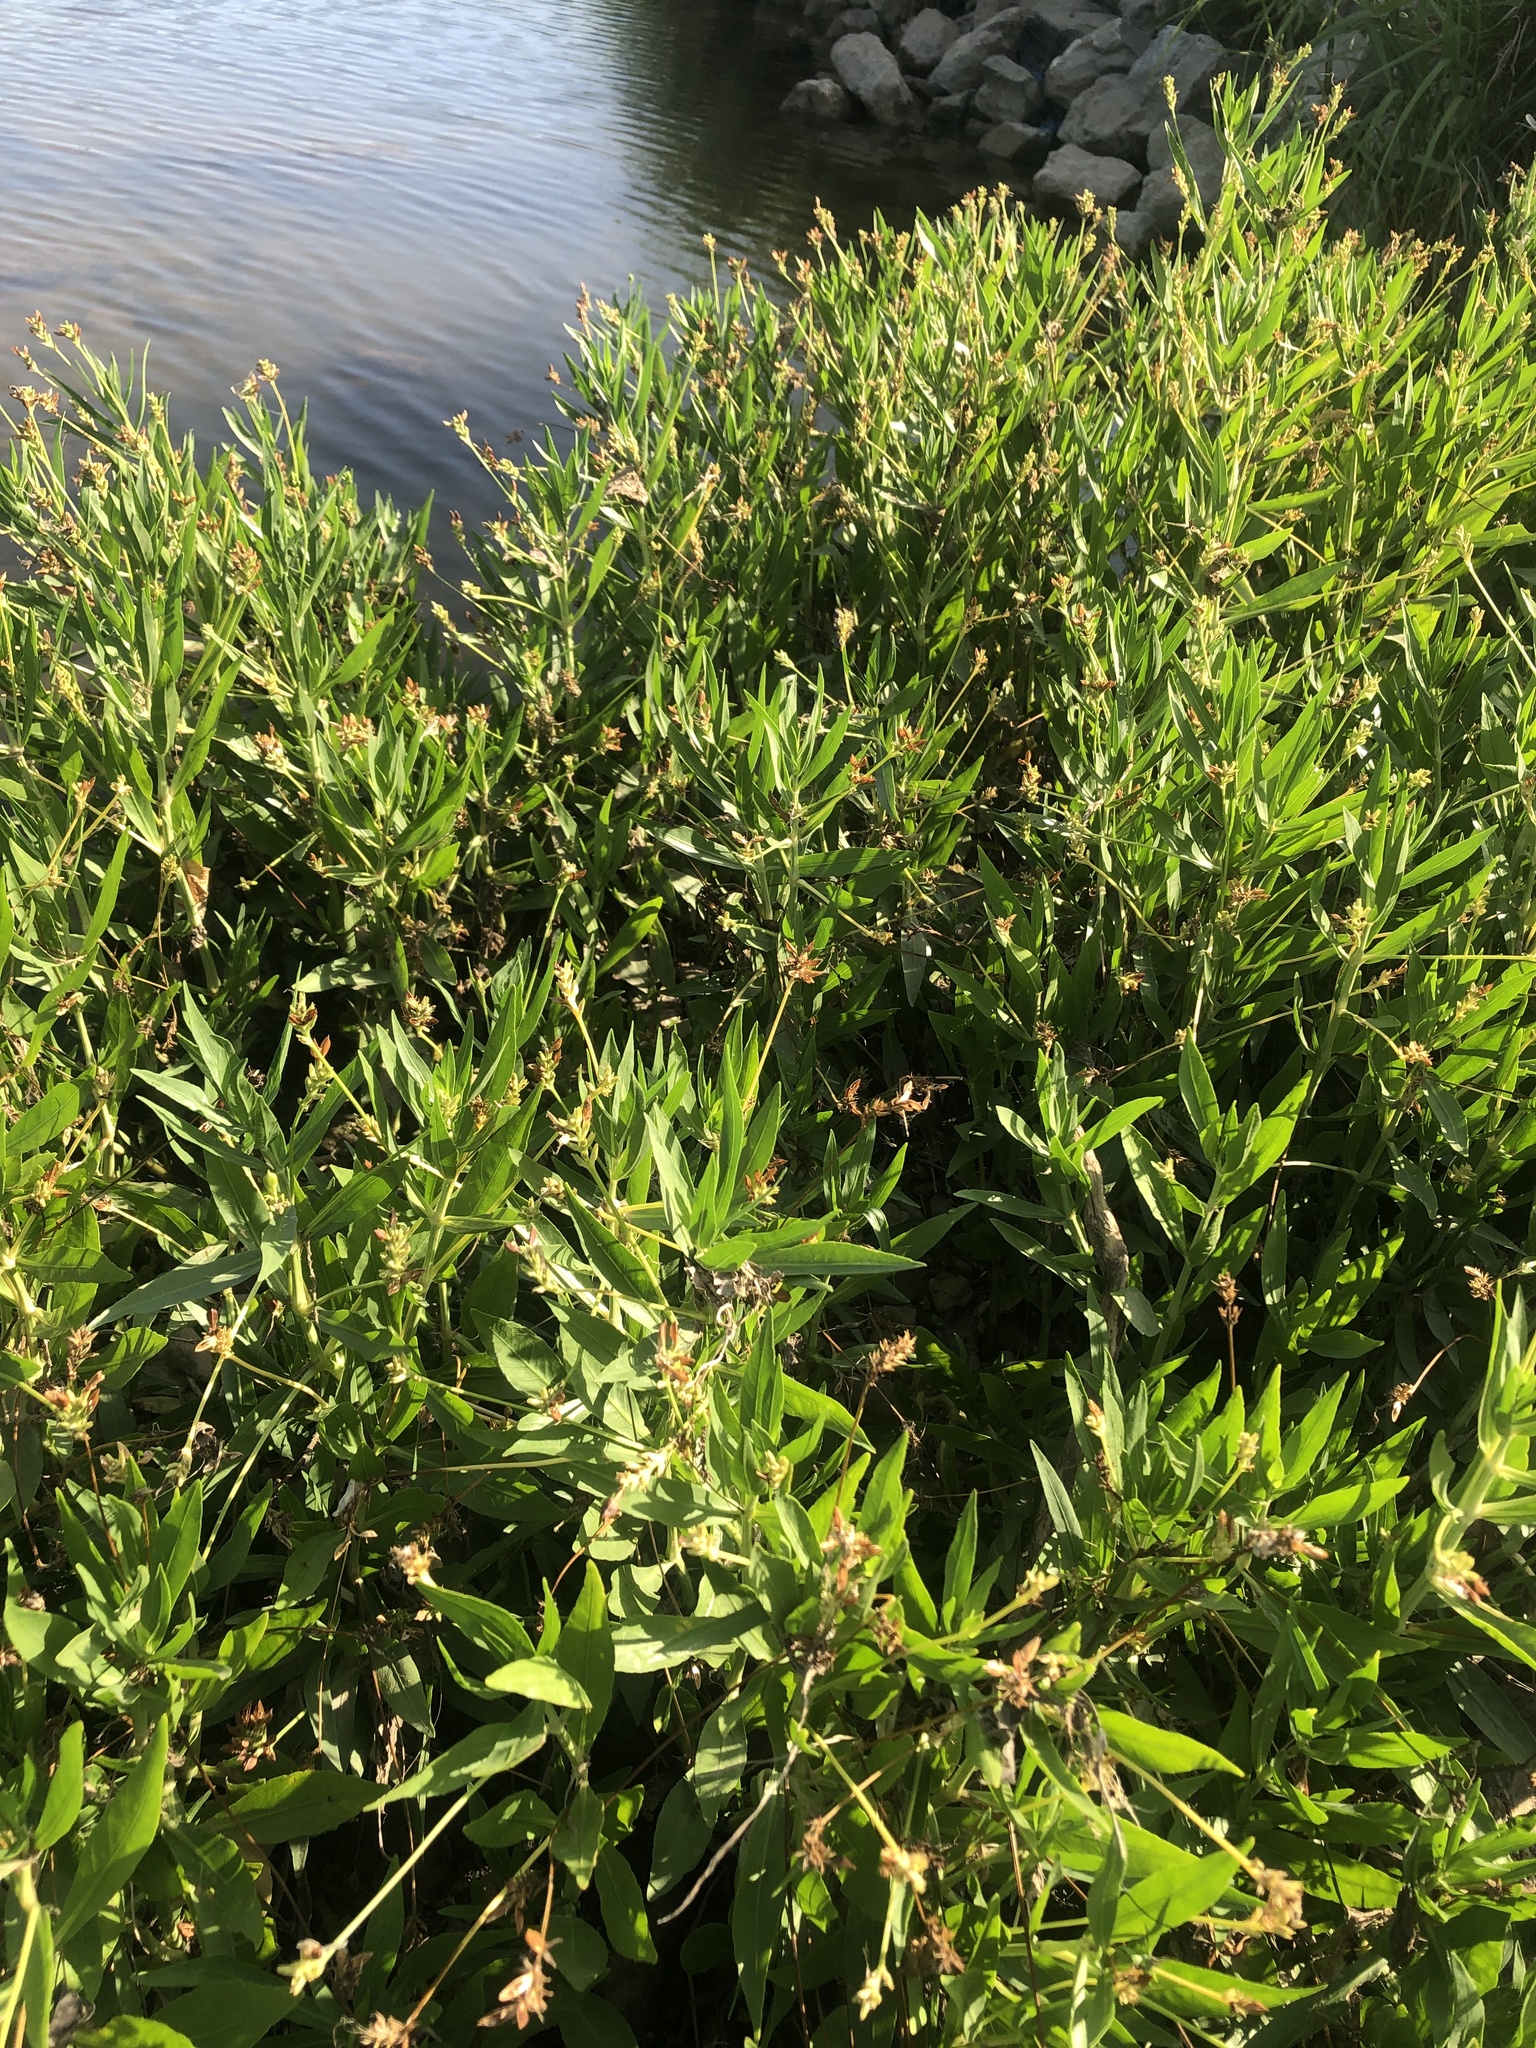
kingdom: Plantae
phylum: Tracheophyta
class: Magnoliopsida
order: Lamiales
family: Acanthaceae
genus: Dianthera
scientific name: Dianthera americana
